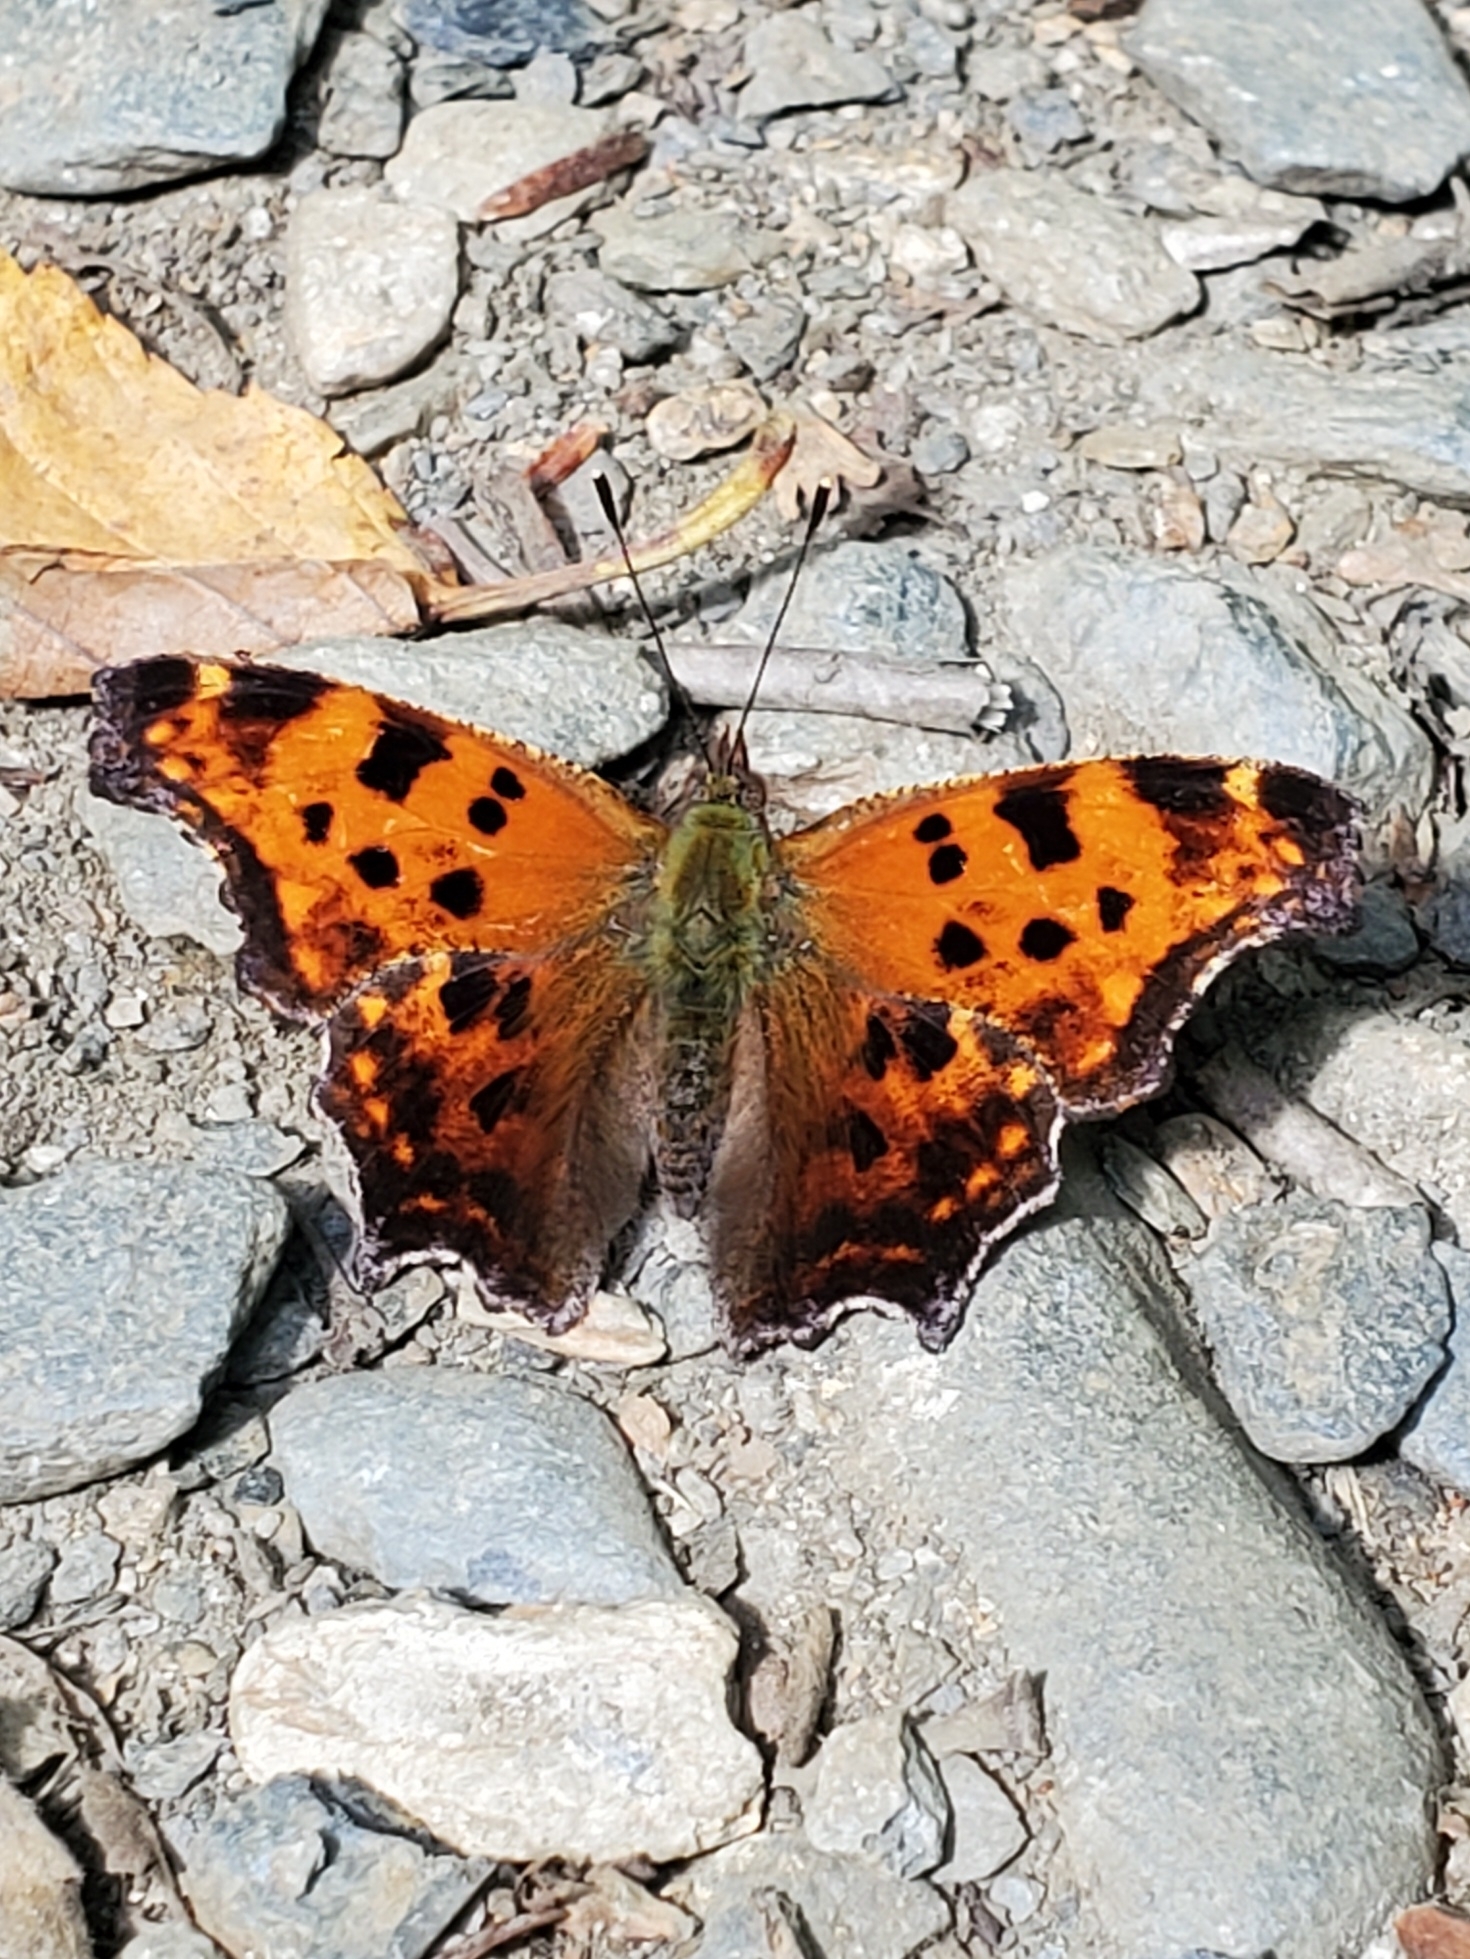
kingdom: Animalia
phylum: Arthropoda
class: Insecta
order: Lepidoptera
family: Nymphalidae
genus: Polygonia
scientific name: Polygonia comma
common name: Eastern comma
